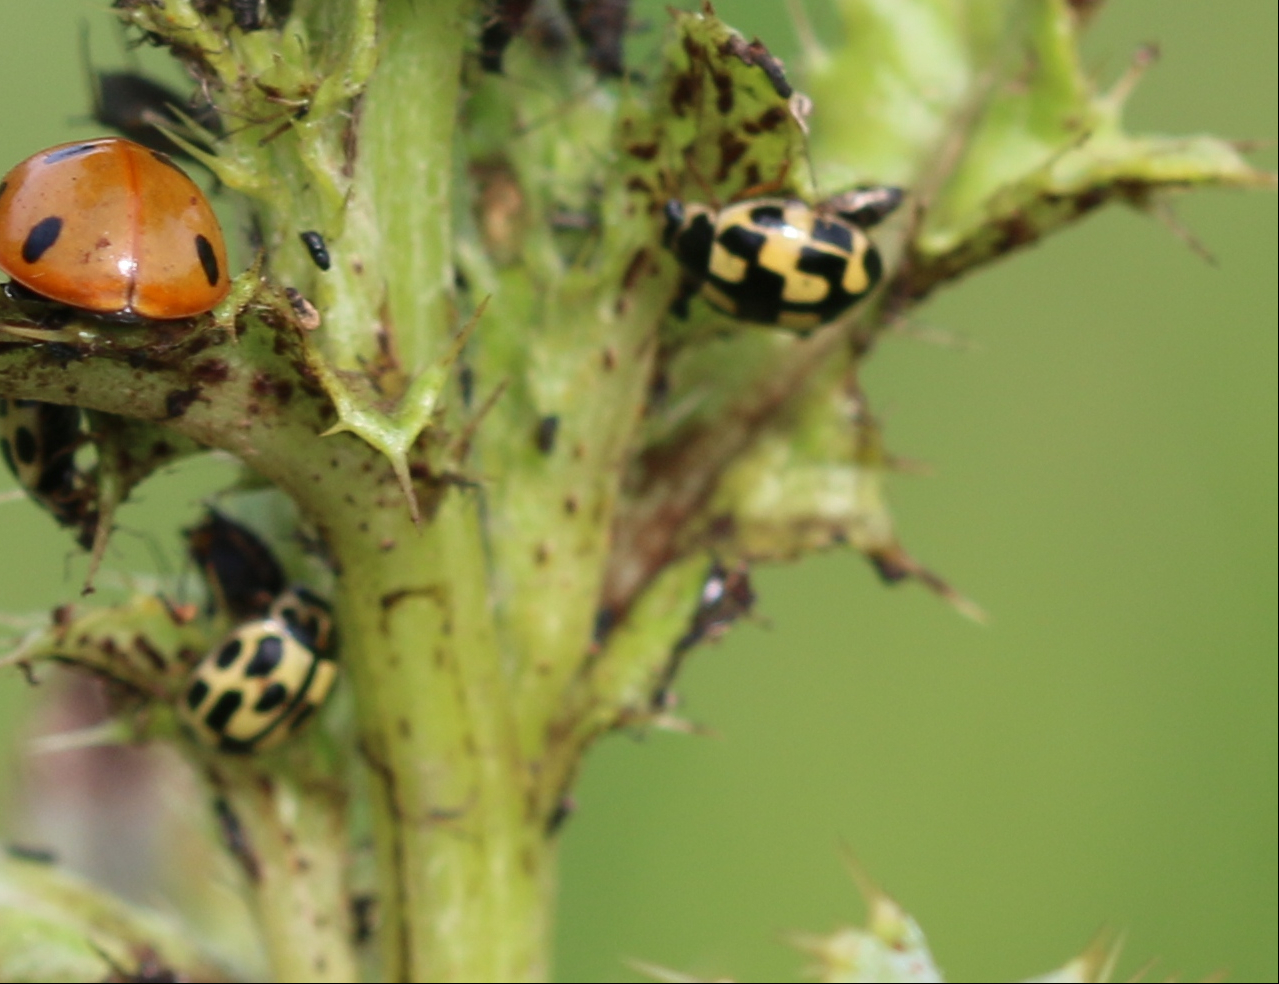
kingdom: Animalia
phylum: Arthropoda
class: Insecta
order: Coleoptera
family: Coccinellidae
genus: Propylaea
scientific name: Propylaea quatuordecimpunctata
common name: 14-spotted ladybird beetle
